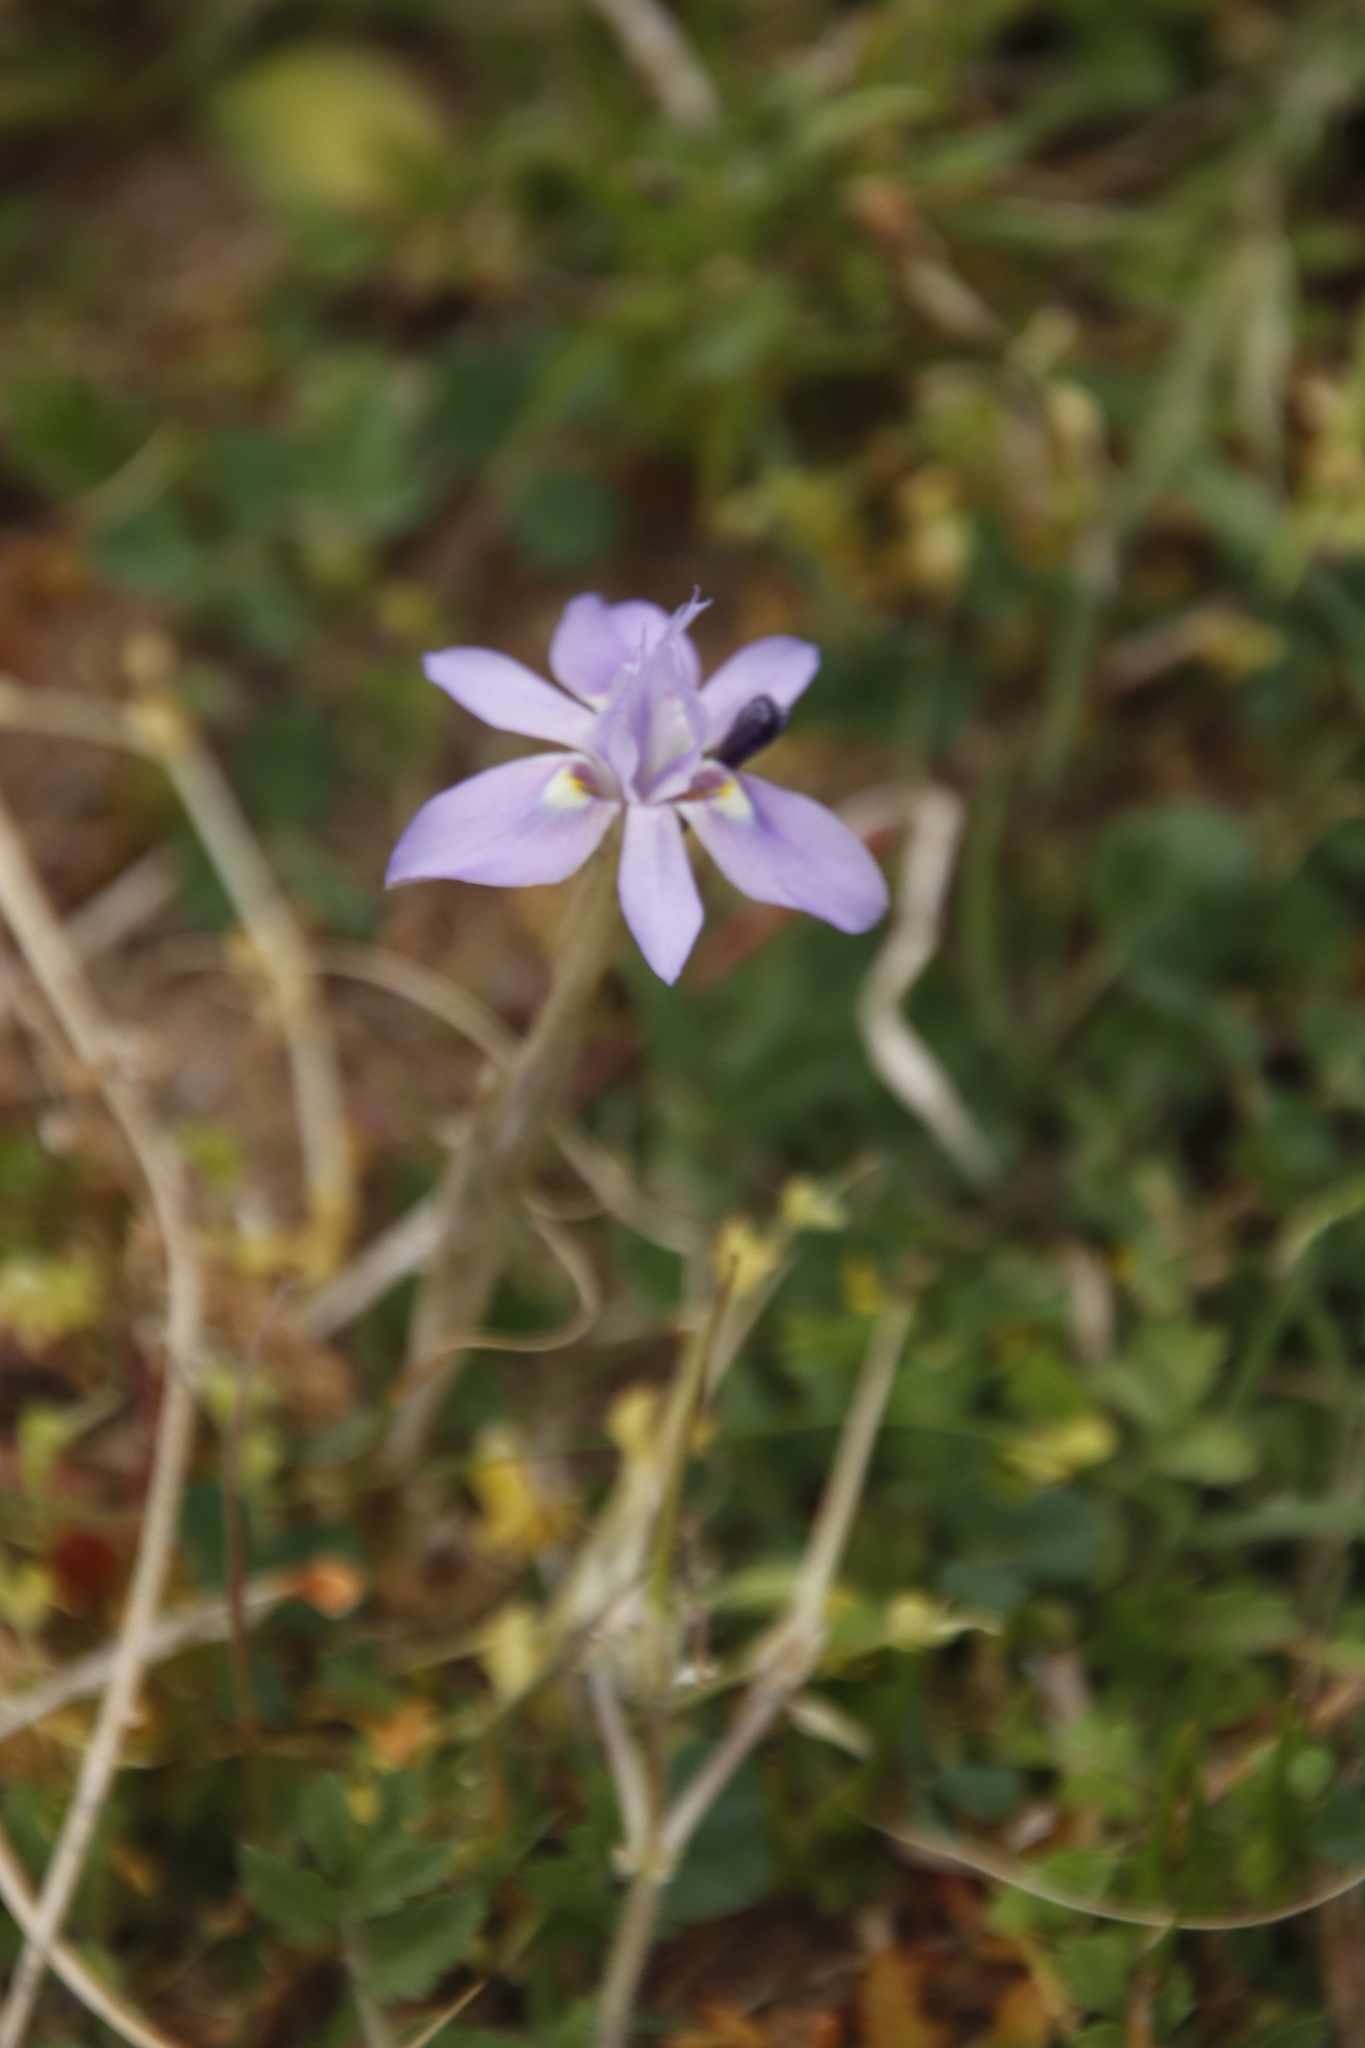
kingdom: Plantae
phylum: Tracheophyta
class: Liliopsida
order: Asparagales
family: Iridaceae
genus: Moraea
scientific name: Moraea setifolia
